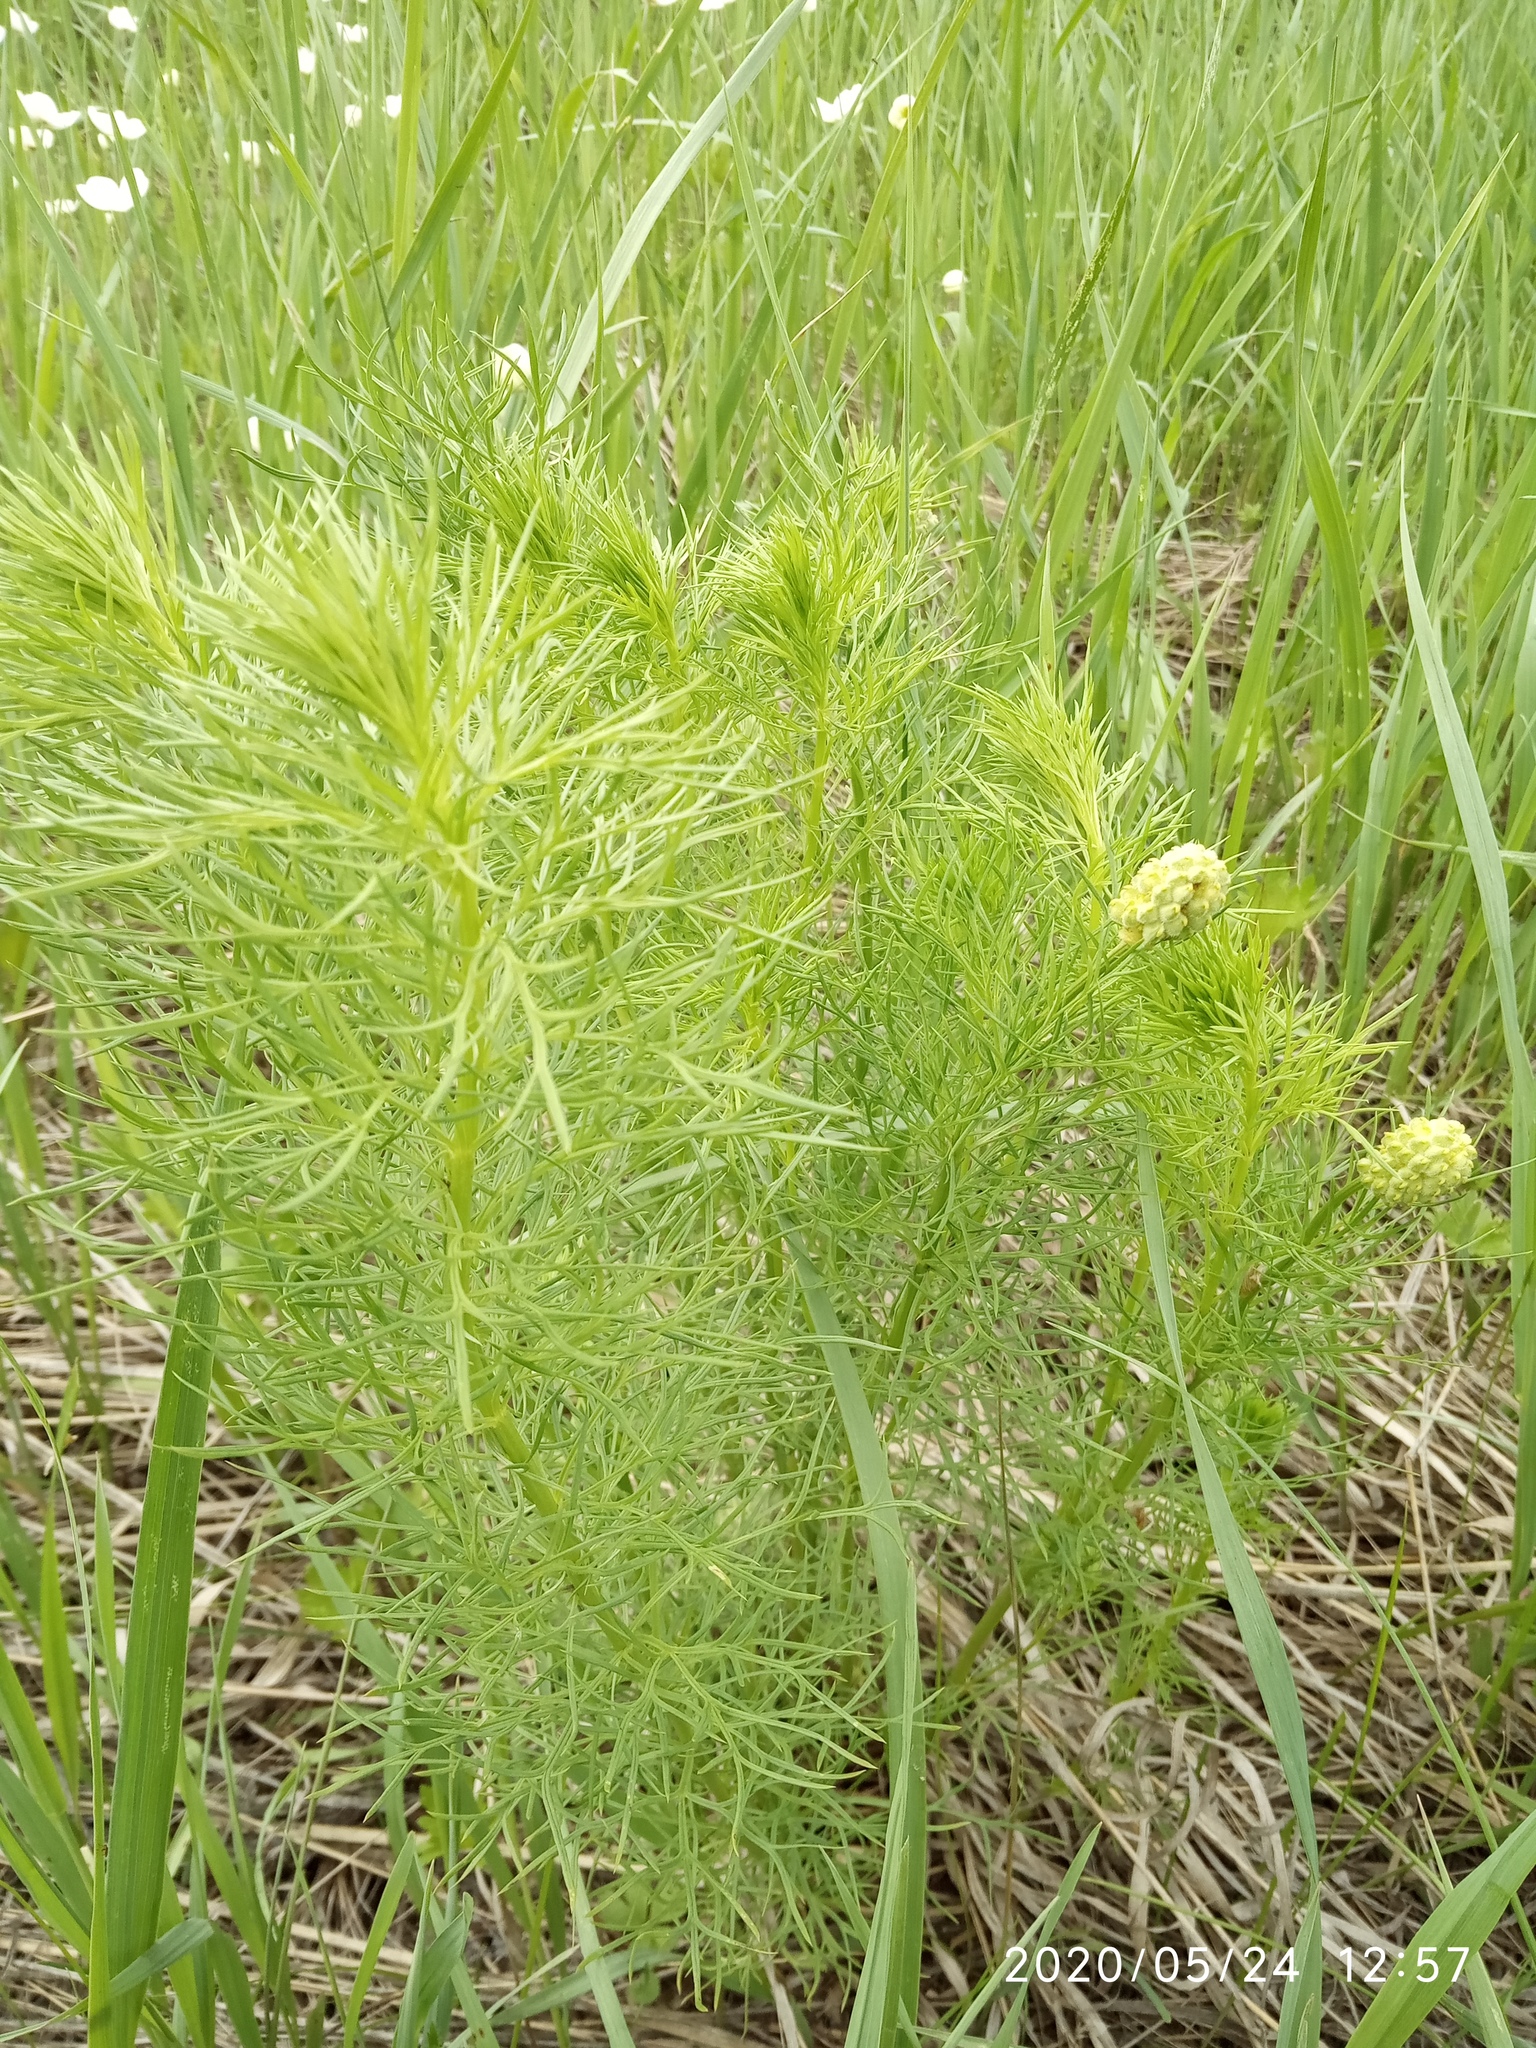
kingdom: Plantae
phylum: Tracheophyta
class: Magnoliopsida
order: Ranunculales
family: Ranunculaceae
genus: Adonis
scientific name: Adonis vernalis
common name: Yellow pheasants-eye
